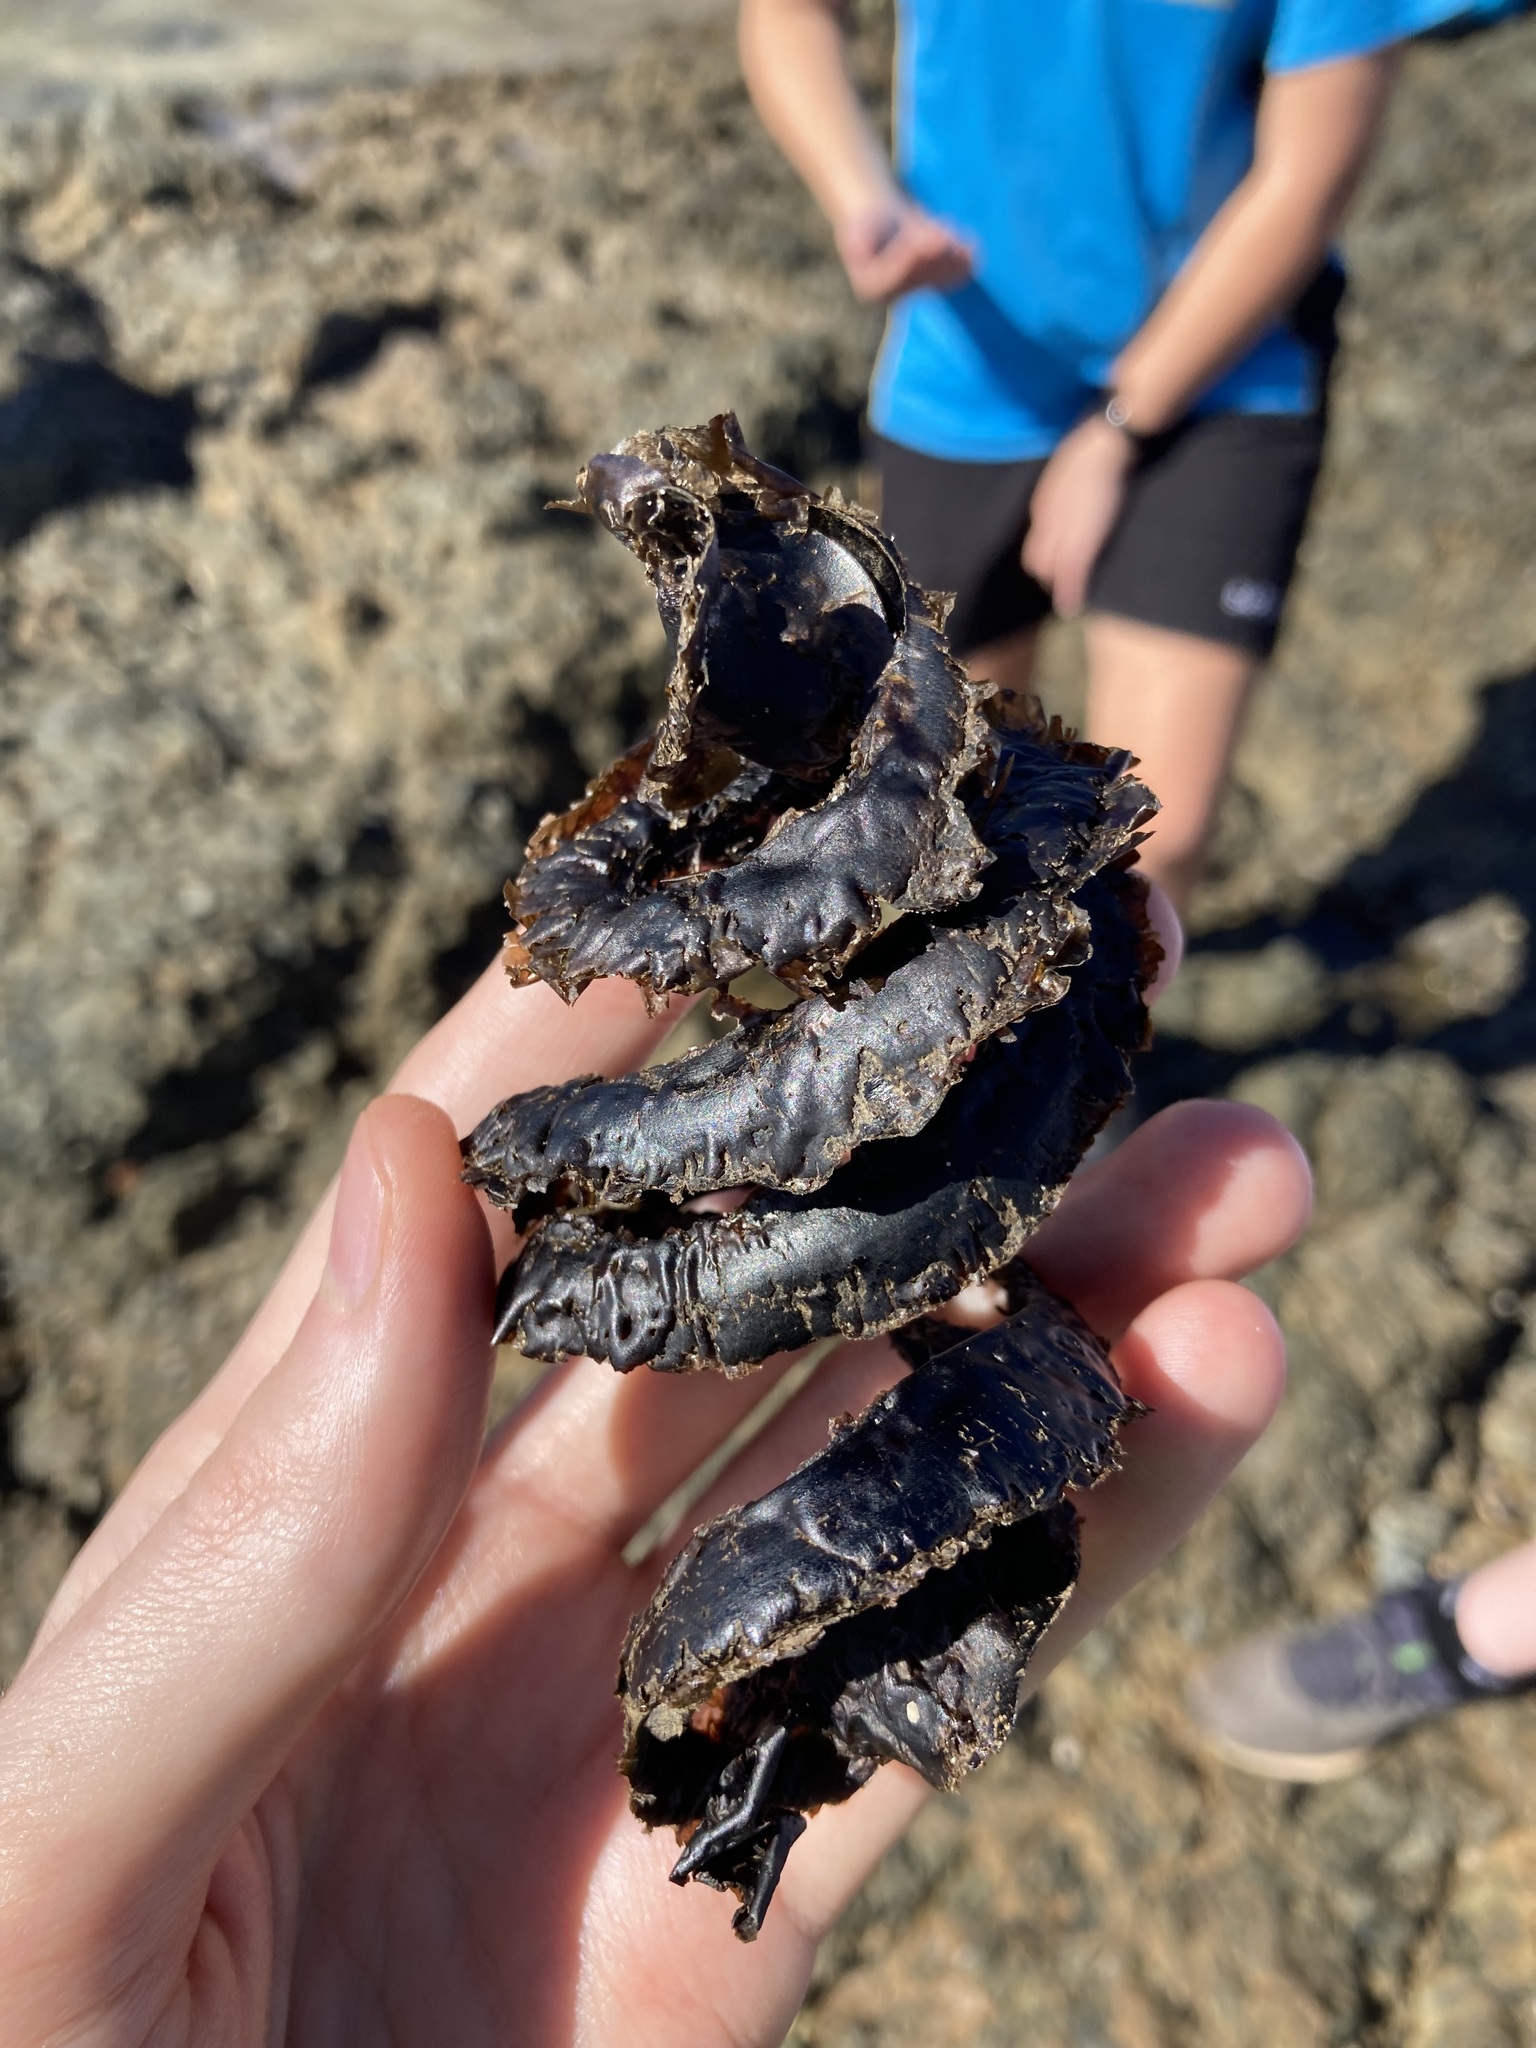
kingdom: Animalia
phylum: Chordata
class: Elasmobranchii
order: Heterodontiformes
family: Heterodontidae
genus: Heterodontus
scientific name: Heterodontus galeatus
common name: Crested bullhead shark
